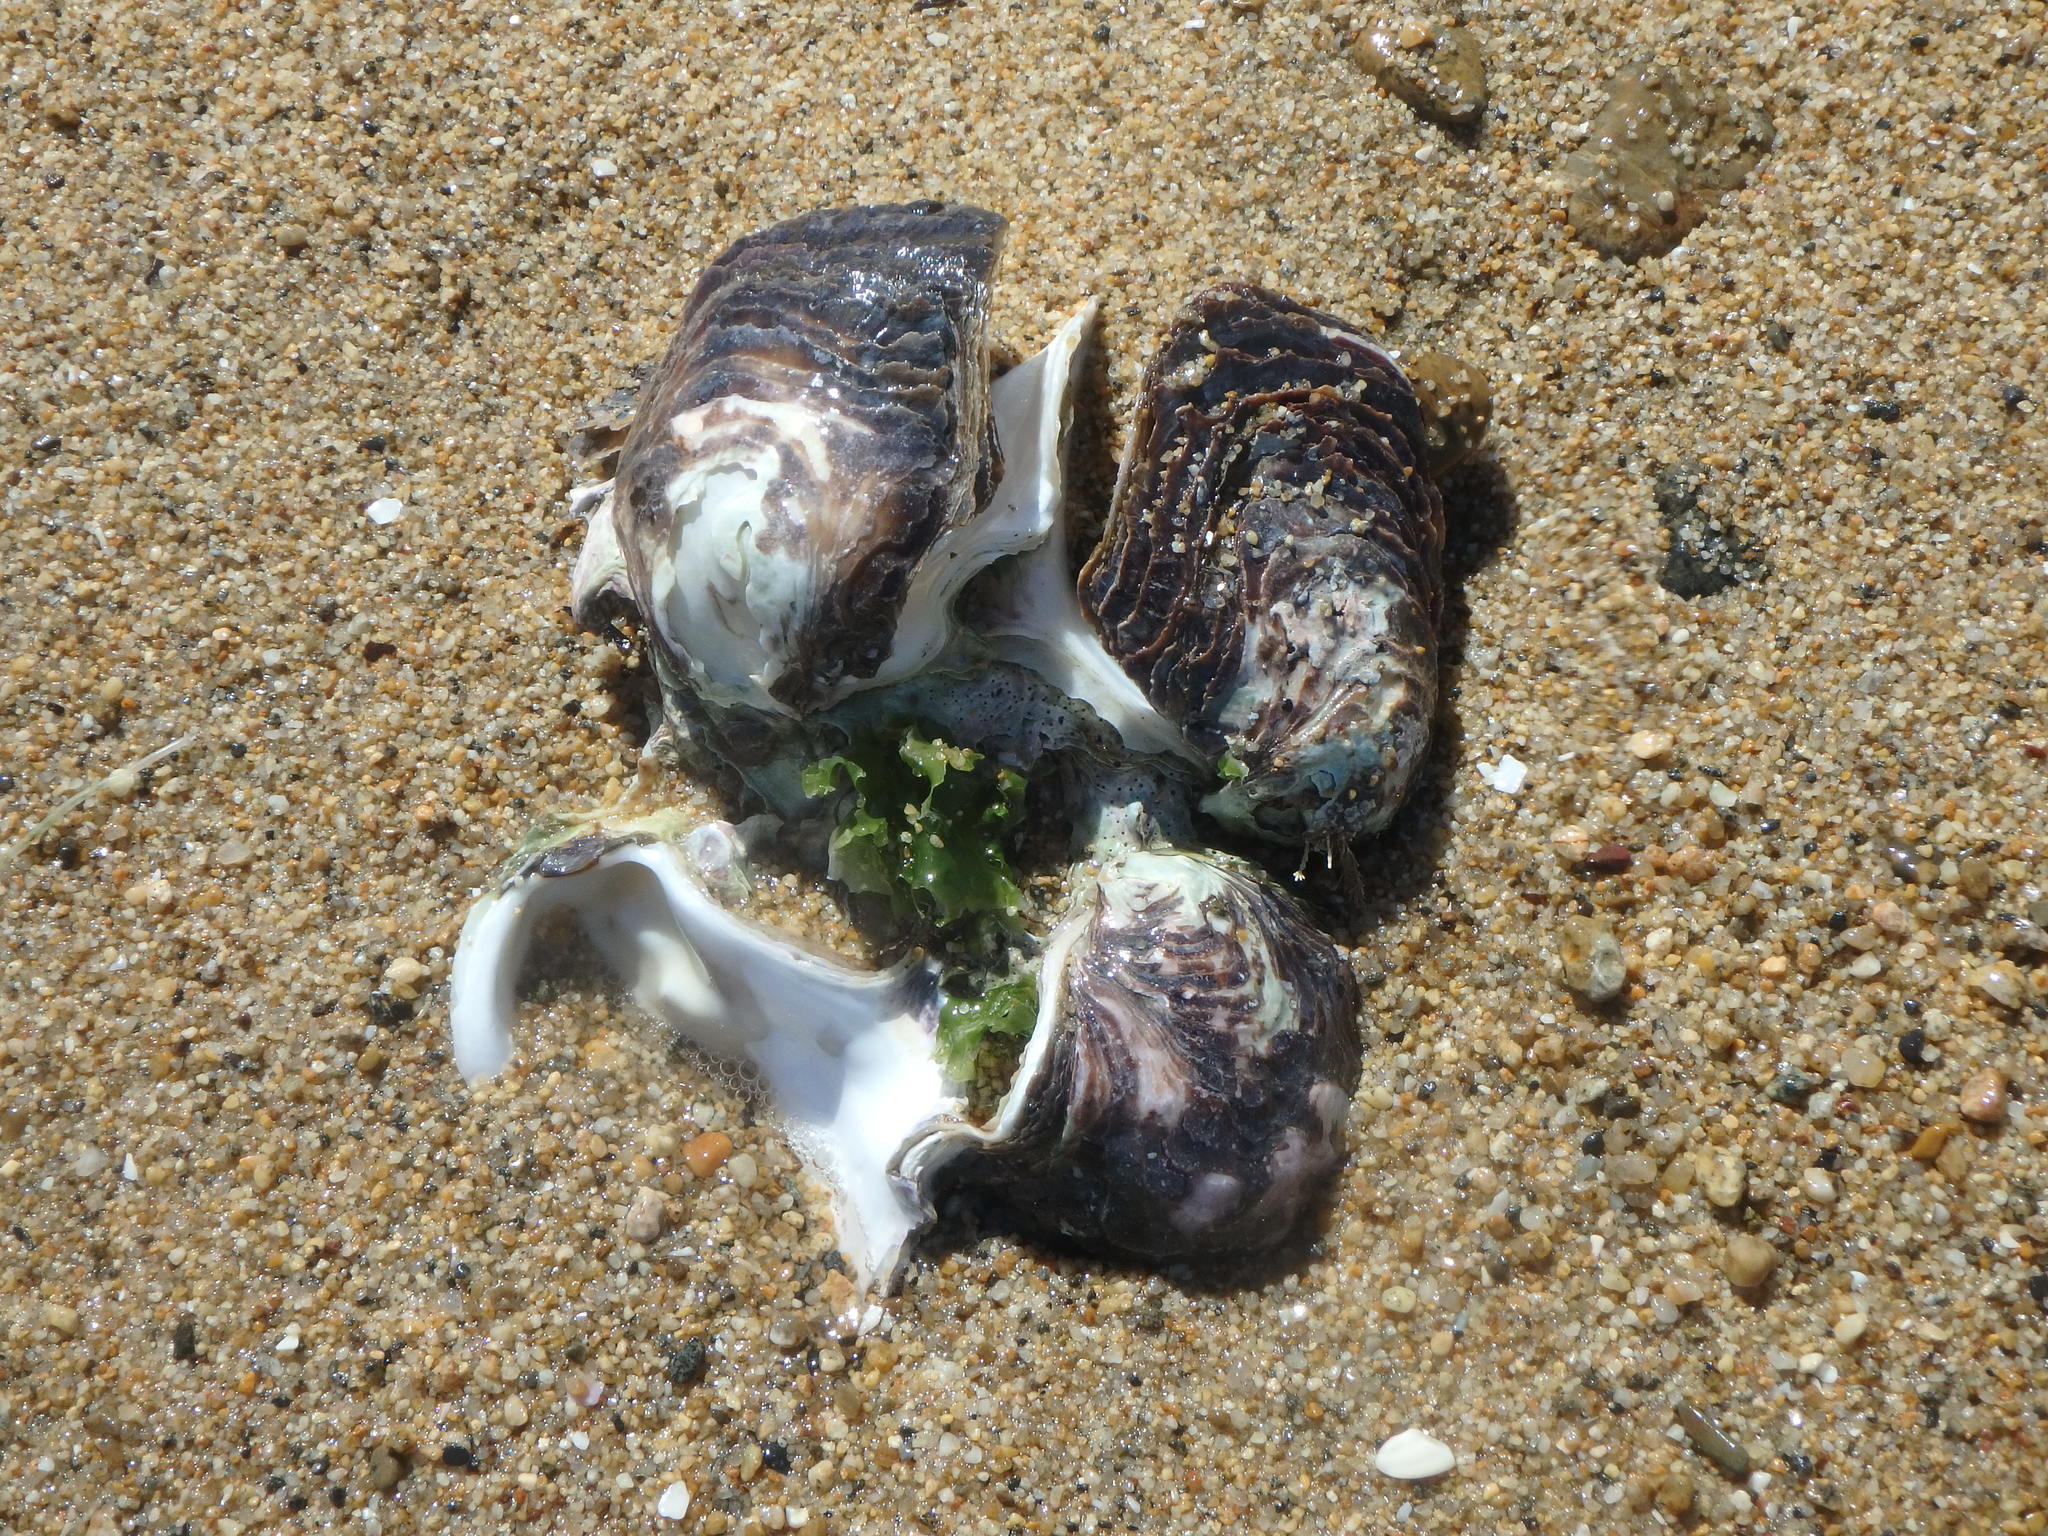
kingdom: Animalia
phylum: Mollusca
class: Bivalvia
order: Ostreida
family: Ostreidae
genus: Magallana
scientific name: Magallana gigas
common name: Pacific oyster
